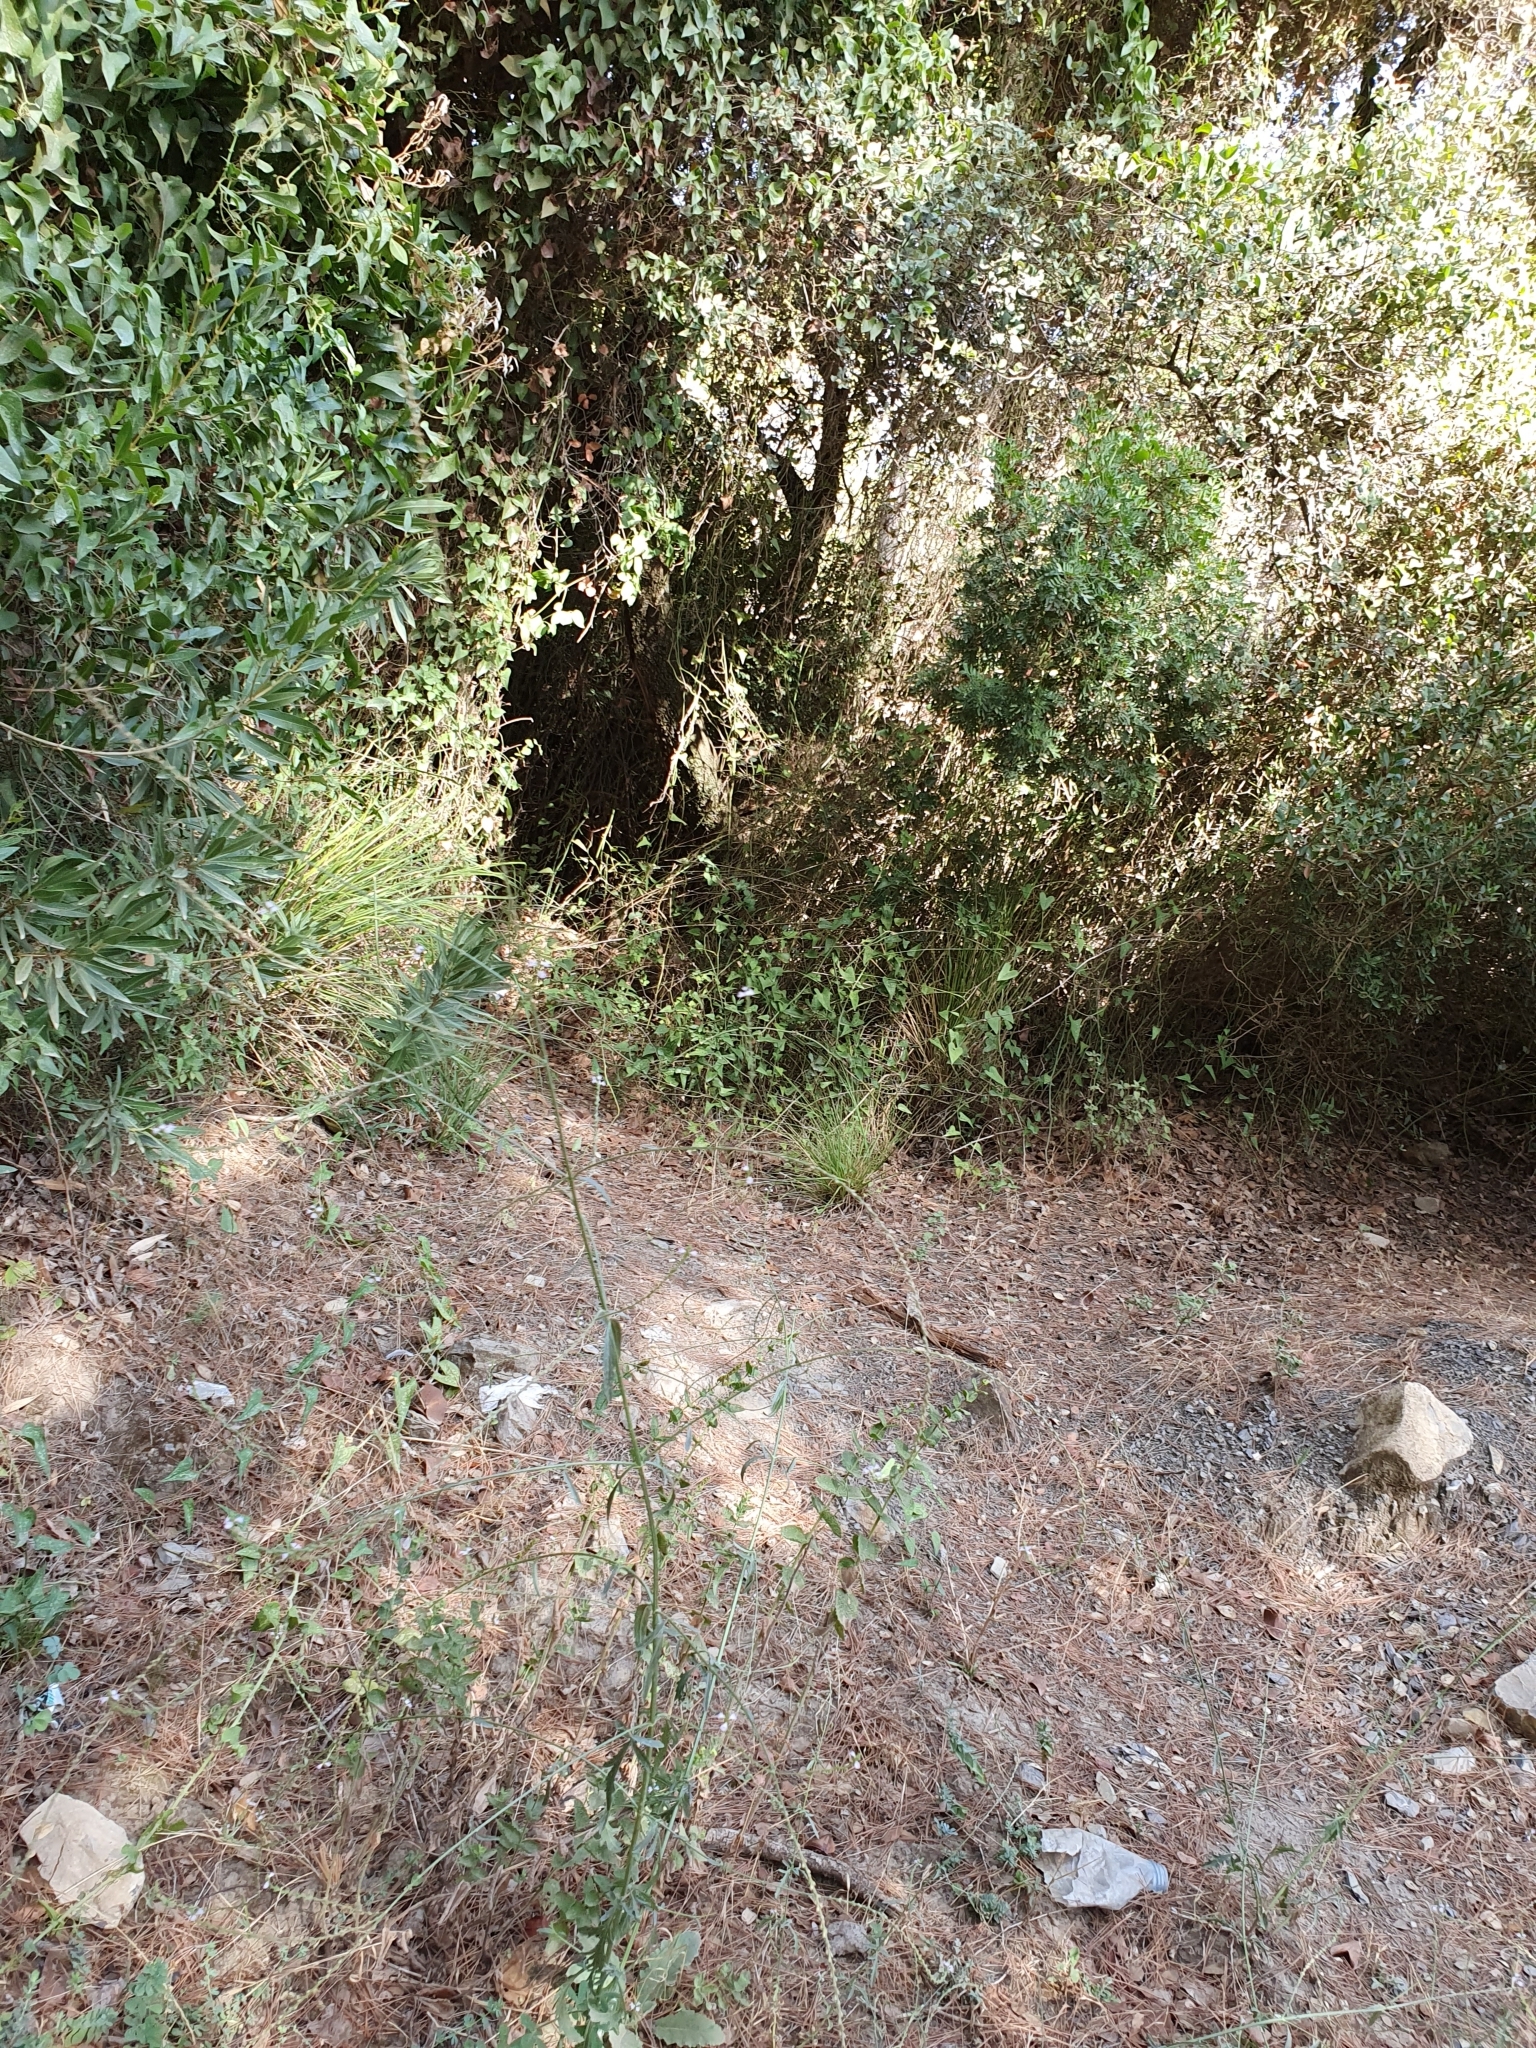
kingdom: Plantae
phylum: Tracheophyta
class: Magnoliopsida
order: Lamiales
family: Verbenaceae
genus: Verbena
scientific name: Verbena officinalis
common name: Vervain
